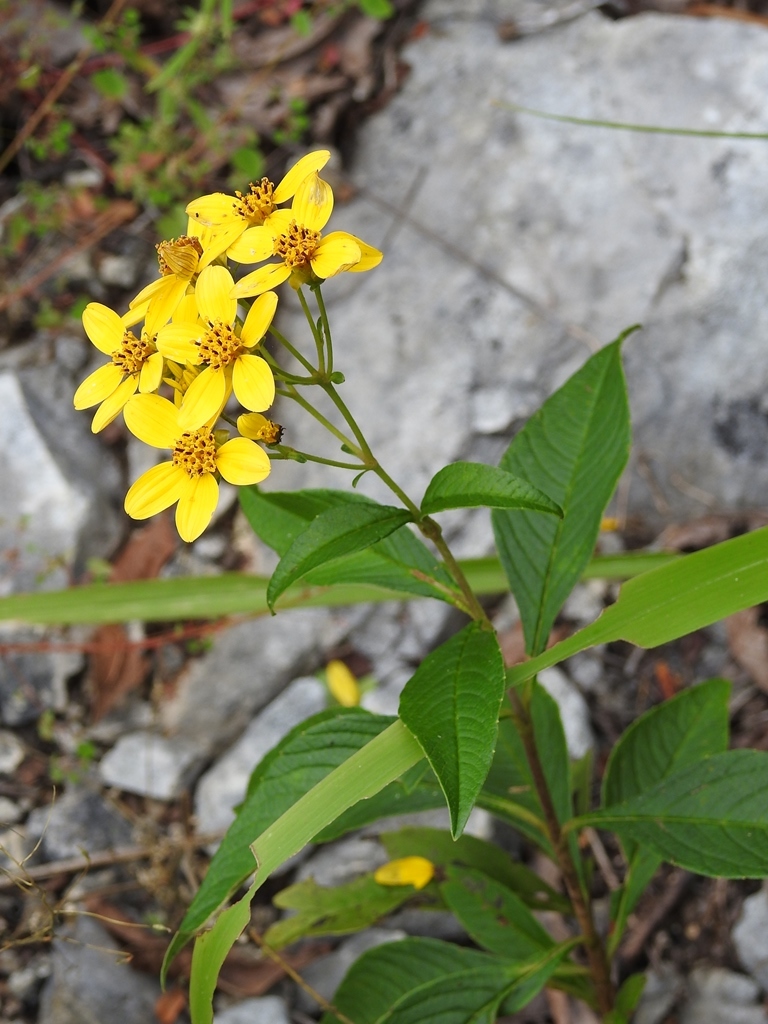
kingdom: Plantae
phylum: Tracheophyta
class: Magnoliopsida
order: Asterales
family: Asteraceae
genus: Electranthera
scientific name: Electranthera mutica
